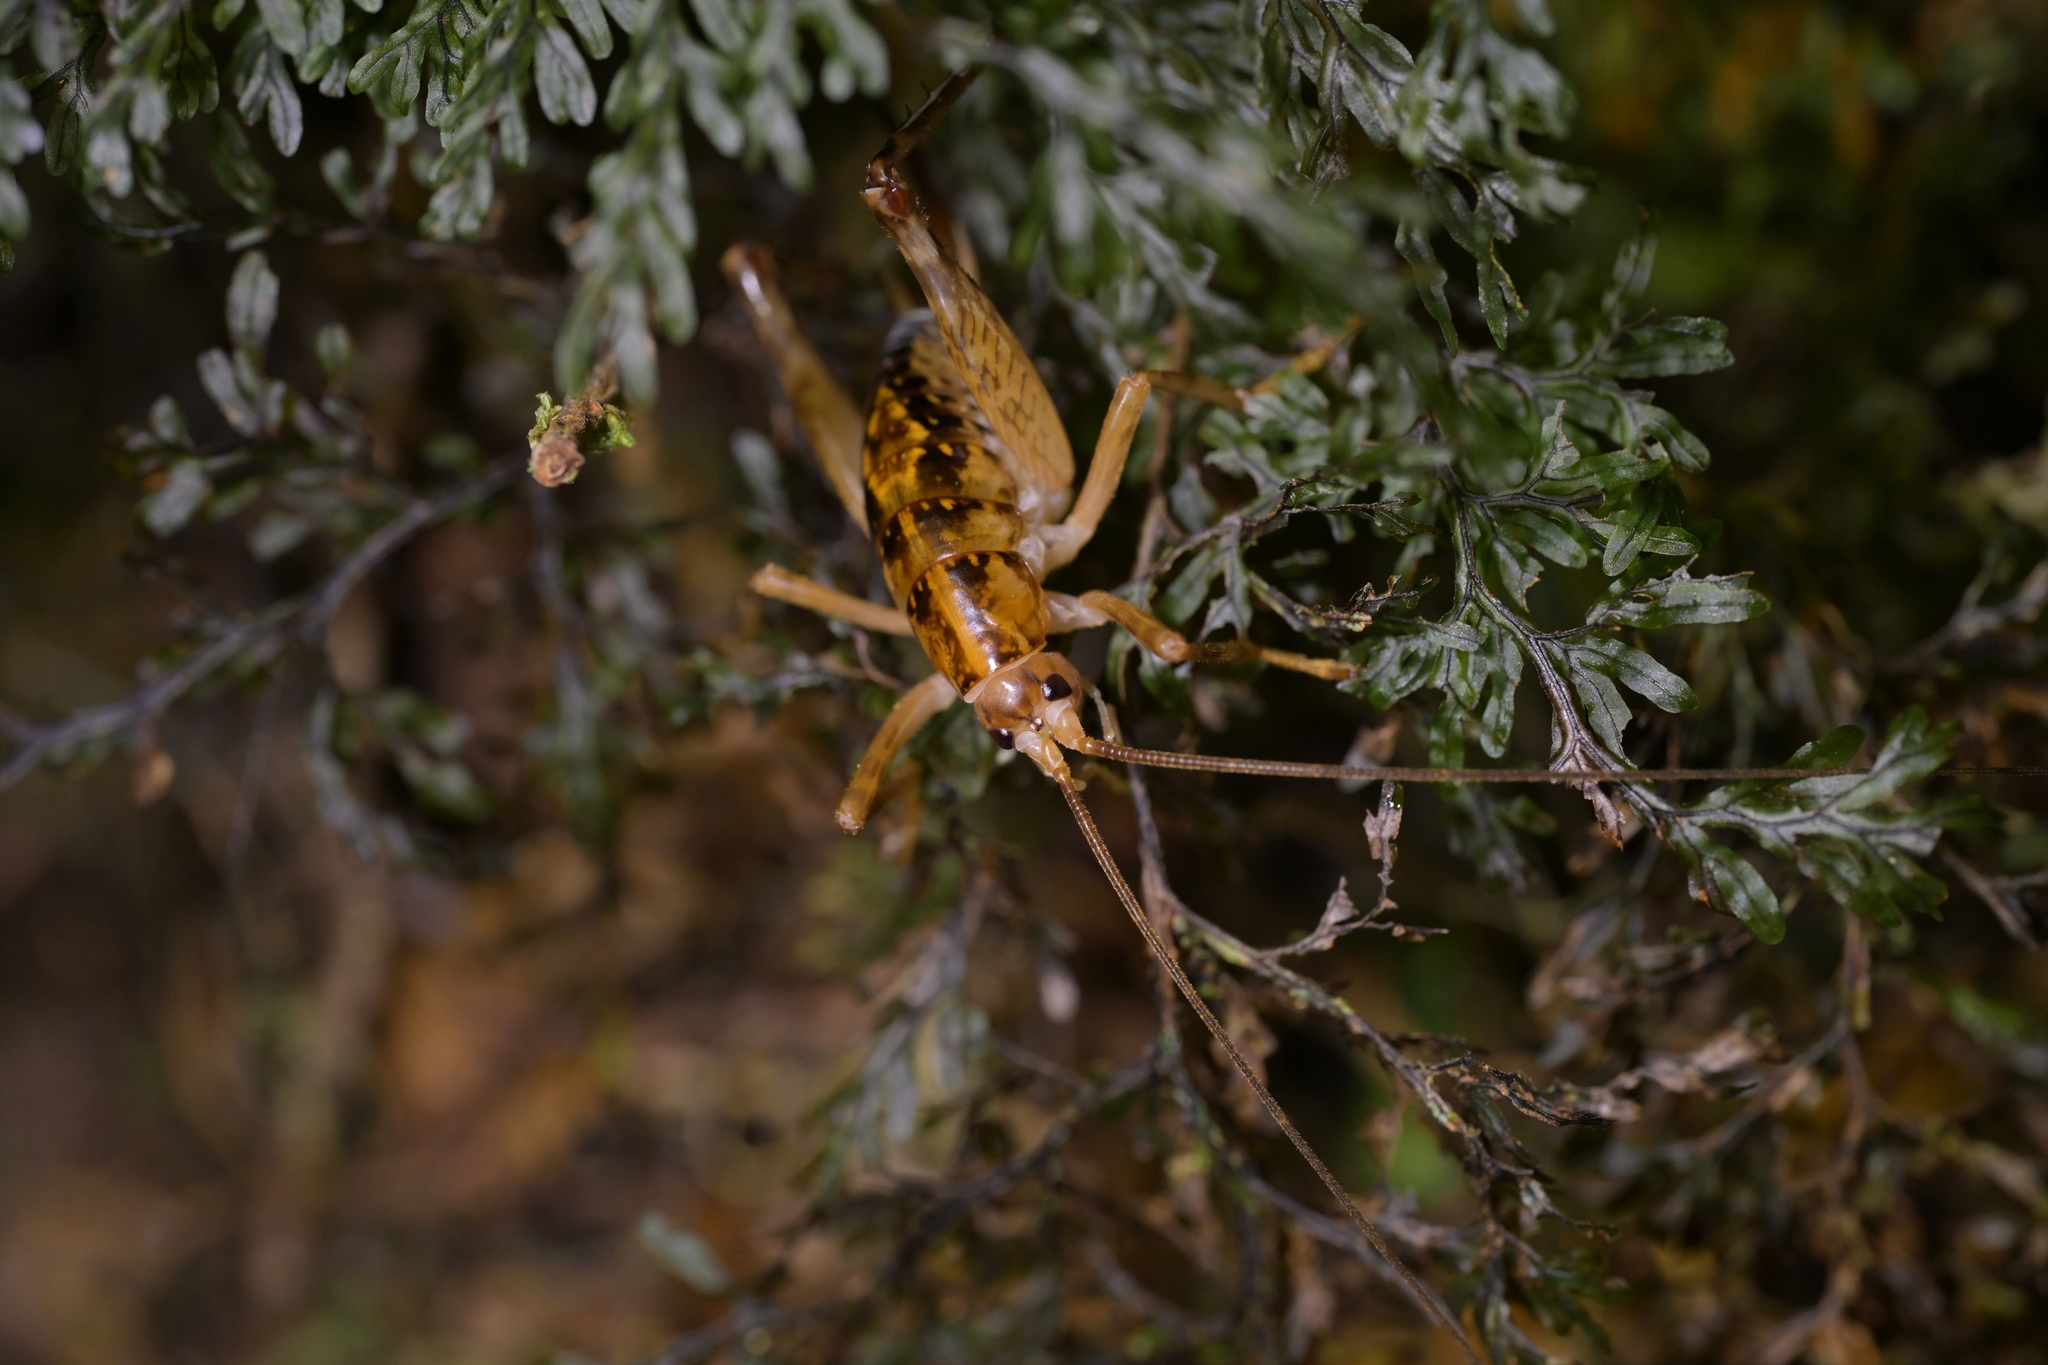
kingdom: Animalia
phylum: Arthropoda
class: Insecta
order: Orthoptera
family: Rhaphidophoridae
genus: Talitropsis
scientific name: Talitropsis sedilloti
